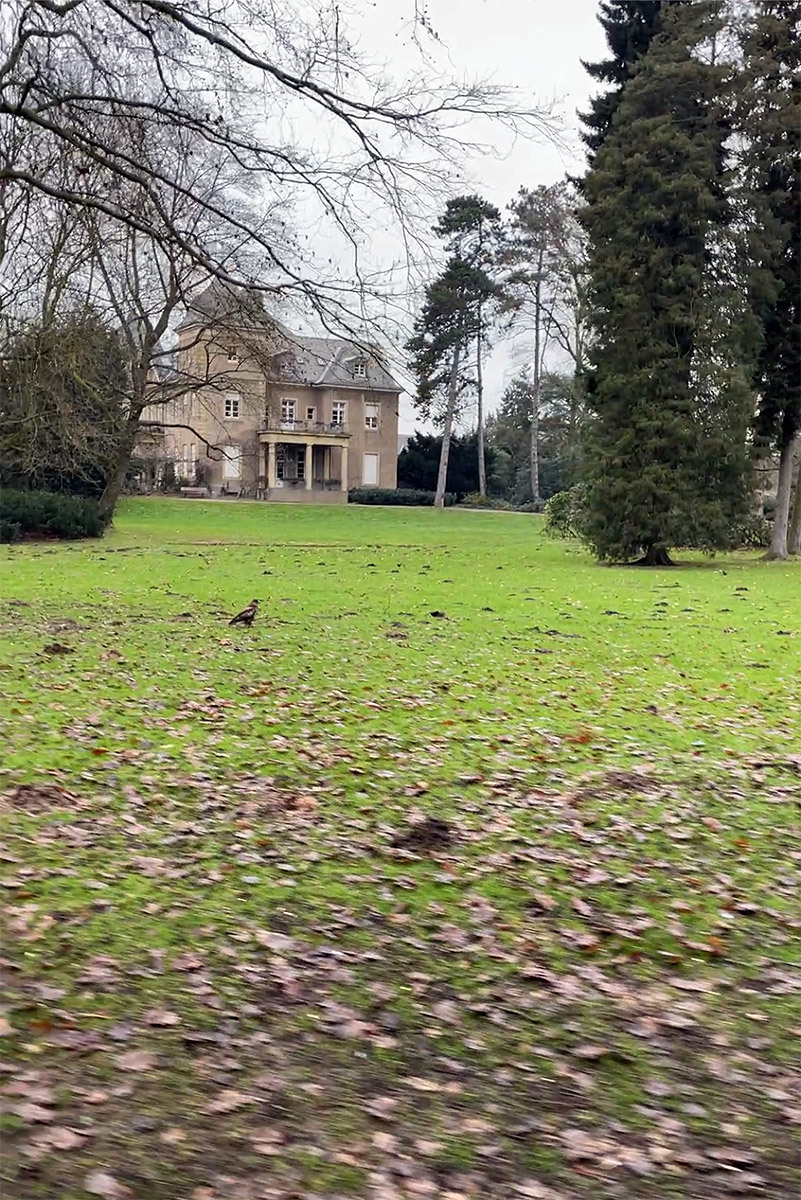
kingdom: Animalia
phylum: Chordata
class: Aves
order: Accipitriformes
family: Accipitridae
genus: Buteo
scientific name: Buteo buteo
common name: Common buzzard
